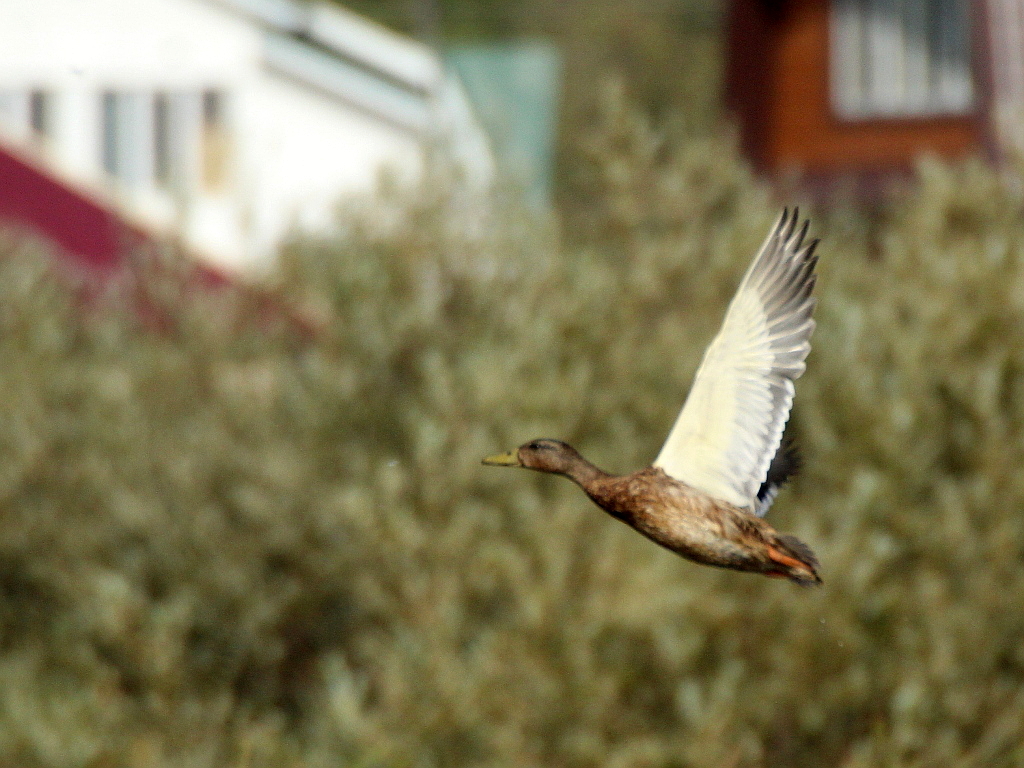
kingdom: Animalia
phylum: Chordata
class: Aves
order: Anseriformes
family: Anatidae
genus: Anas
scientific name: Anas platyrhynchos
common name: Mallard
